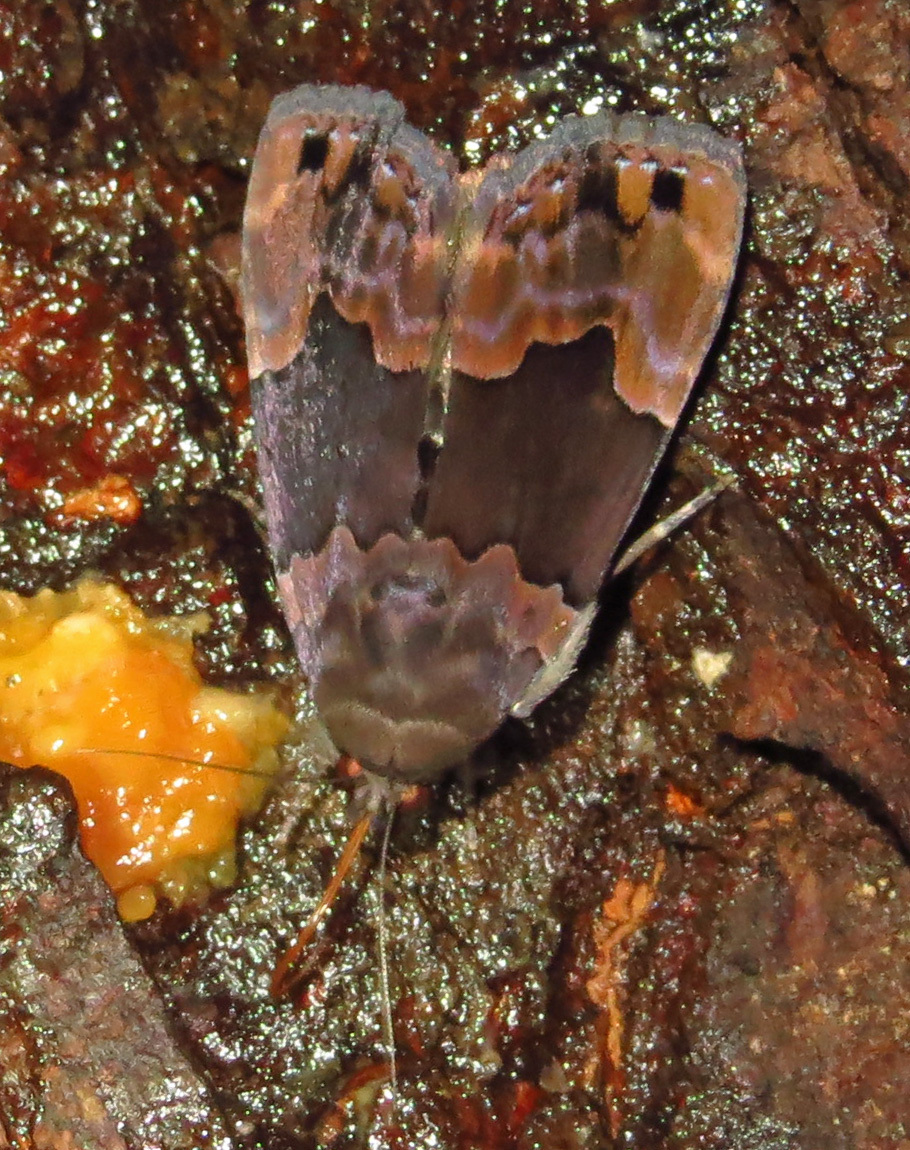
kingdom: Animalia
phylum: Arthropoda
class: Insecta
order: Lepidoptera
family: Erebidae
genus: Dinumma
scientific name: Dinumma deponens
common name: Purplish moth
